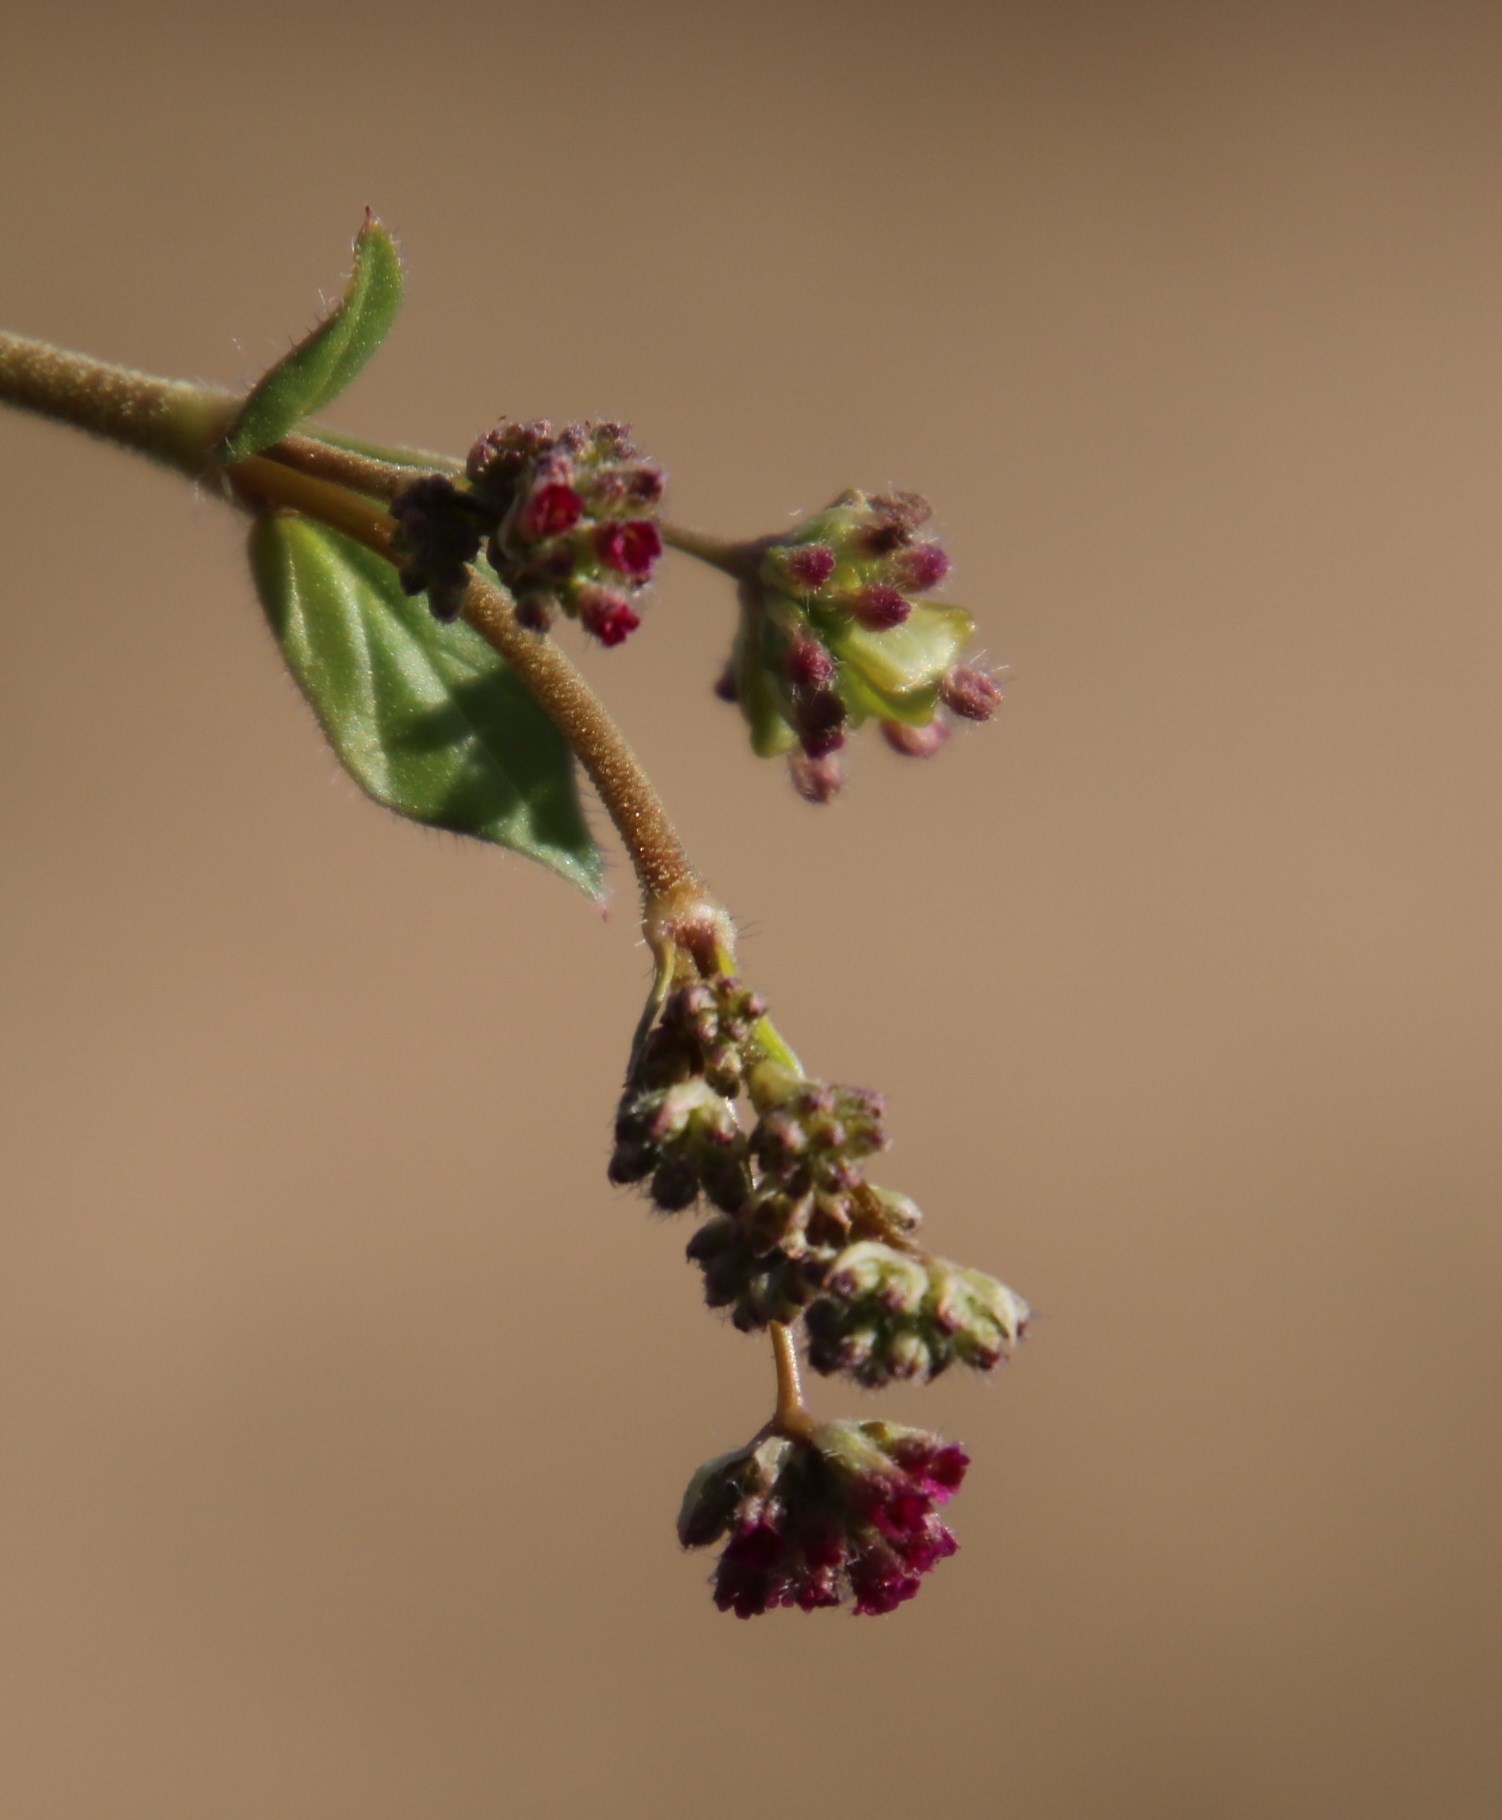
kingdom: Plantae
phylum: Tracheophyta
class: Magnoliopsida
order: Caryophyllales
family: Nyctaginaceae
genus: Boerhavia
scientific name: Boerhavia cordobensis
